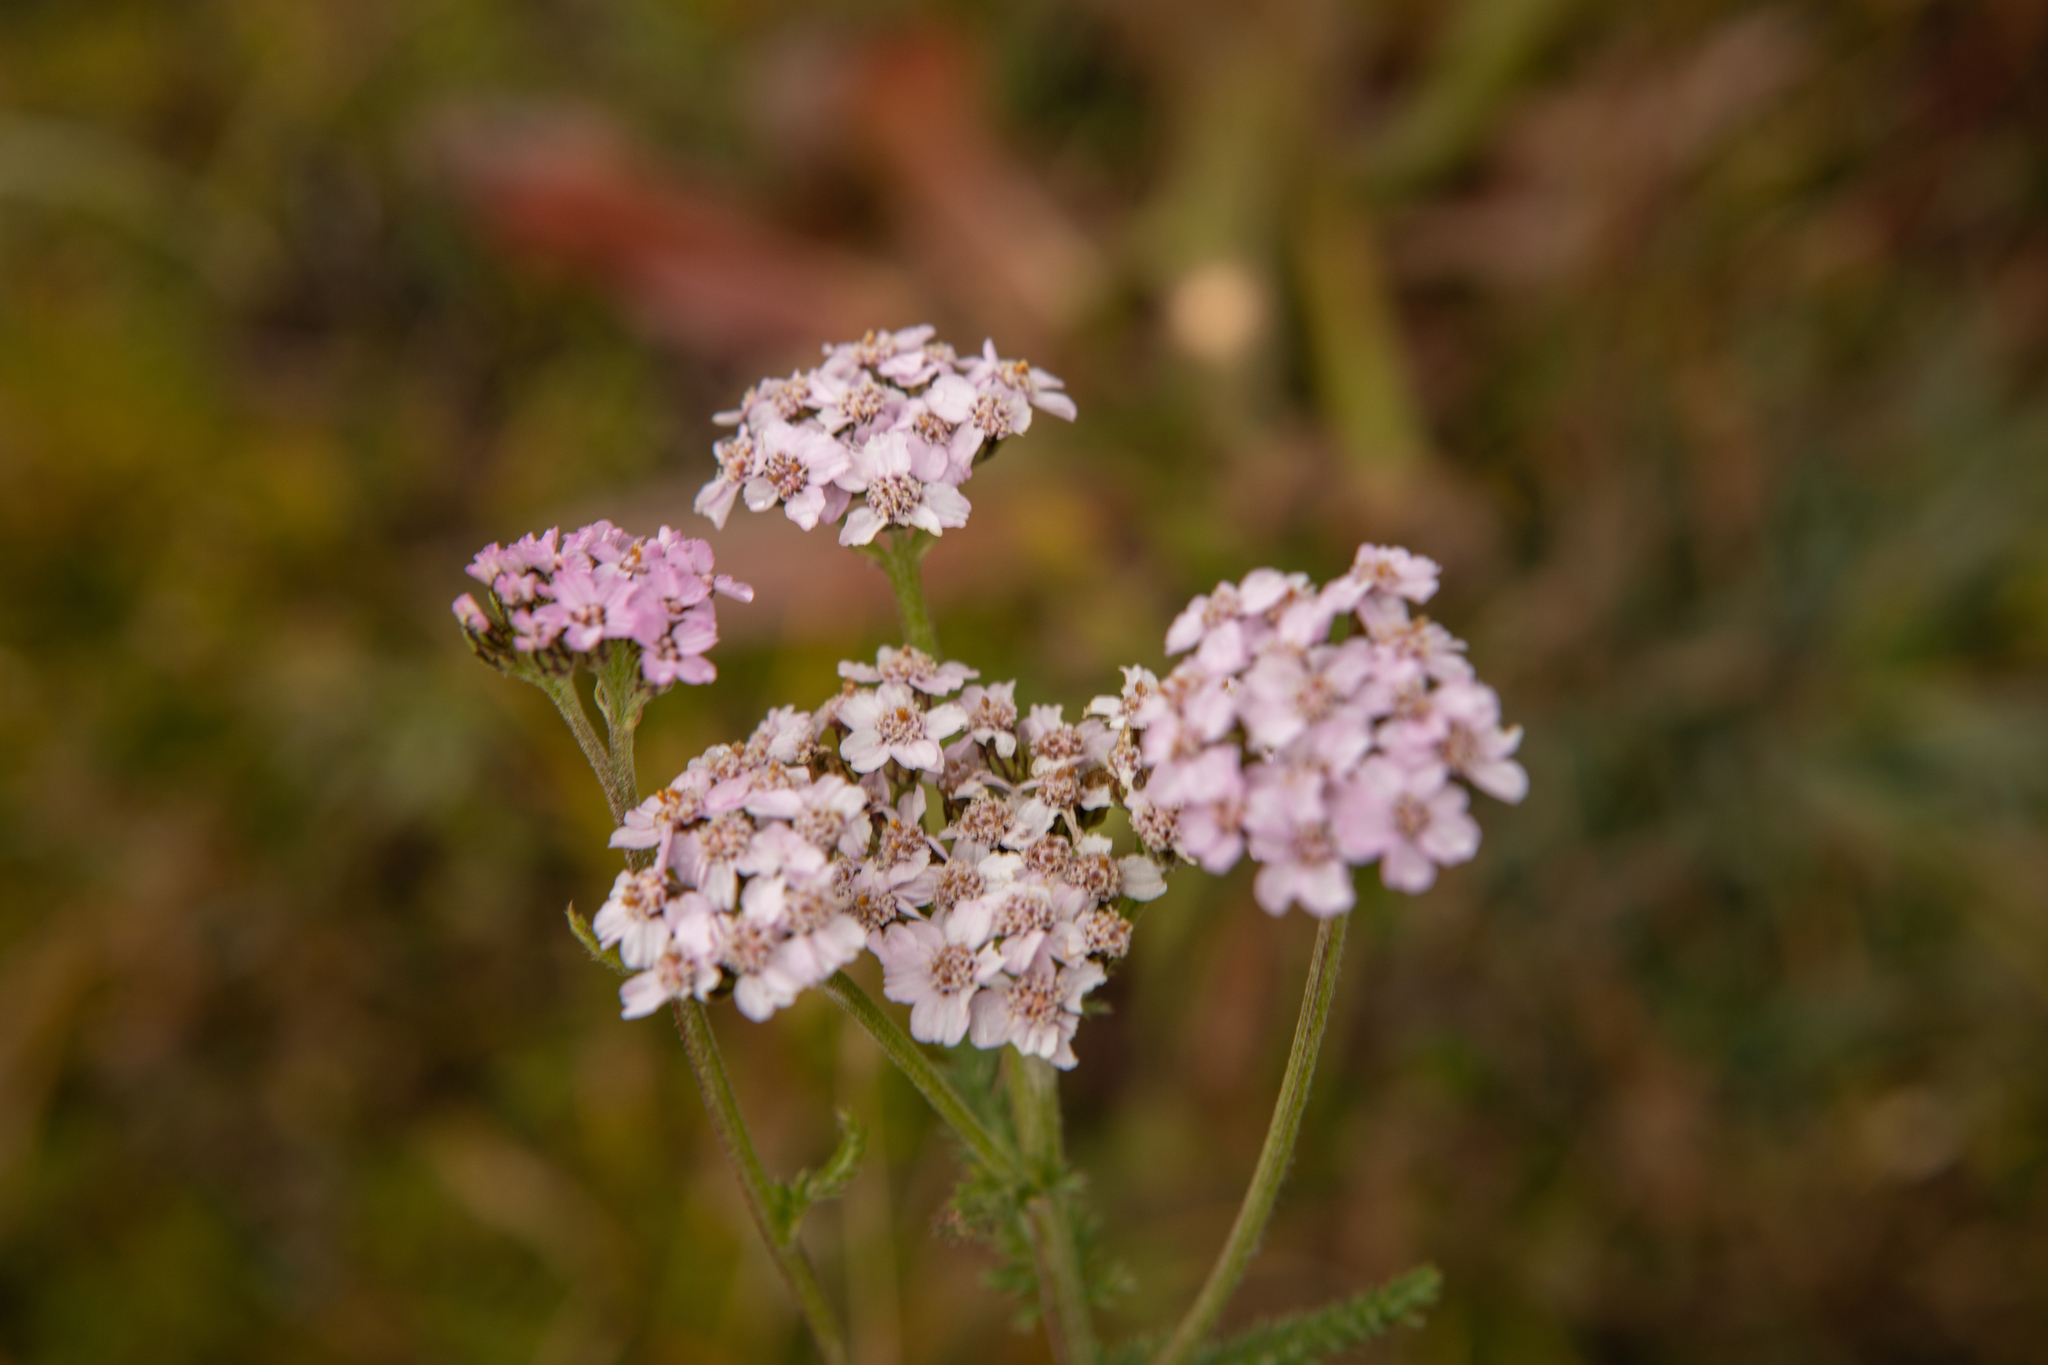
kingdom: Plantae
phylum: Tracheophyta
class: Magnoliopsida
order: Asterales
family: Asteraceae
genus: Achillea
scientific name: Achillea millefolium
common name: Yarrow
